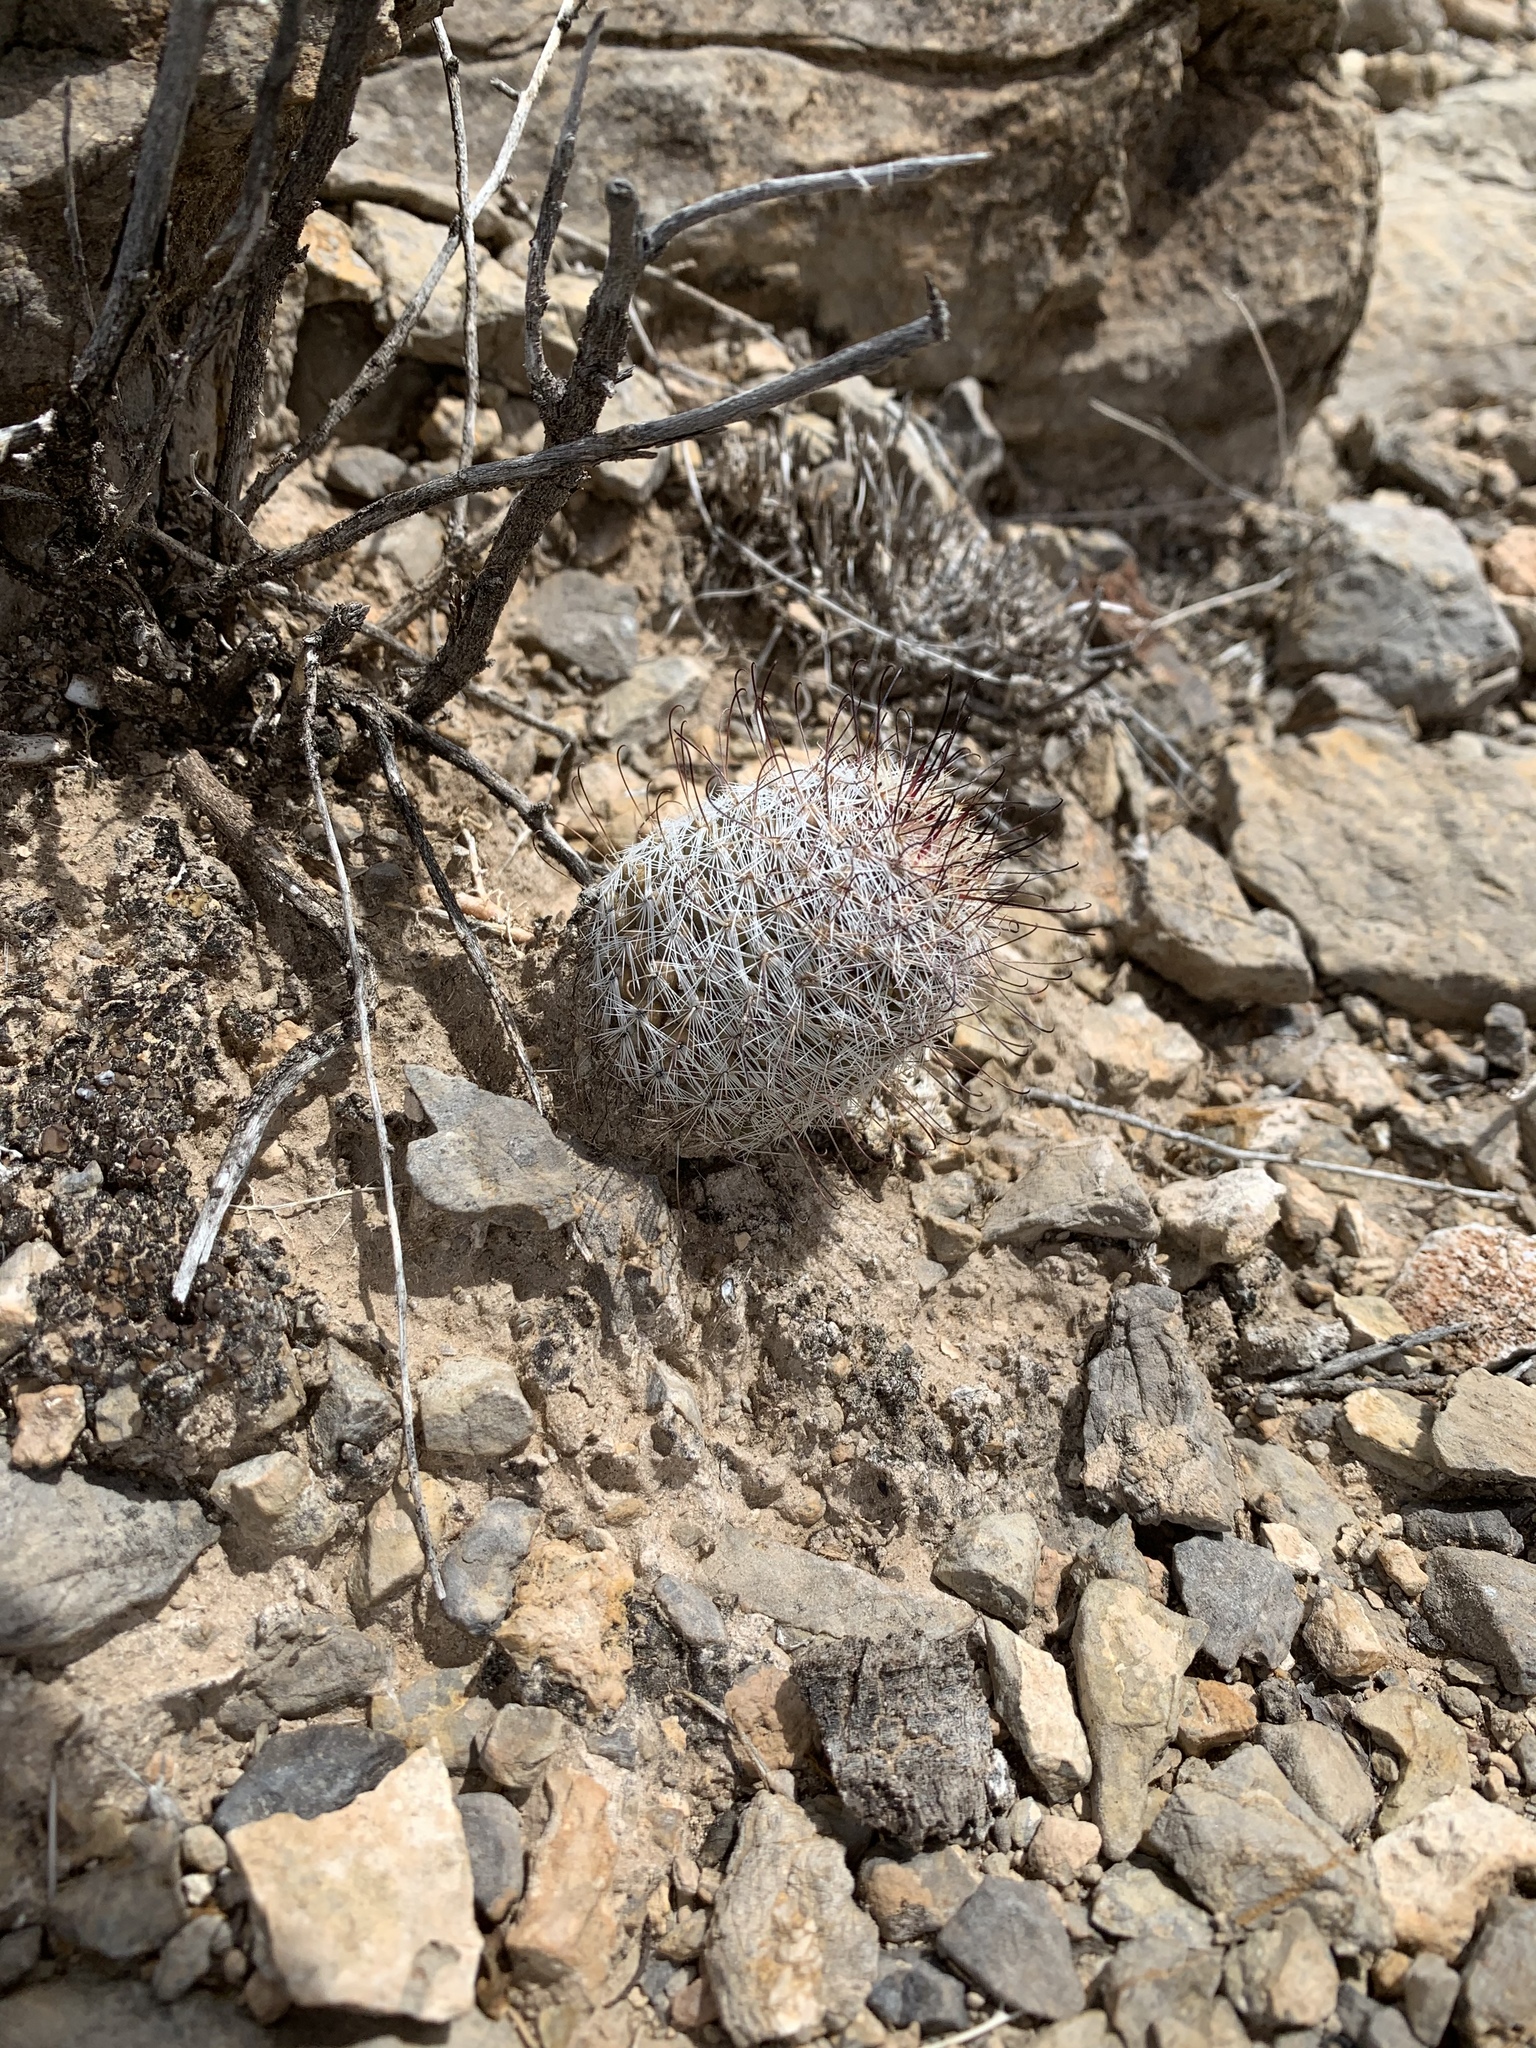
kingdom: Plantae
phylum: Tracheophyta
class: Magnoliopsida
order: Caryophyllales
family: Cactaceae
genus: Cochemiea
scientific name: Cochemiea grahamii
